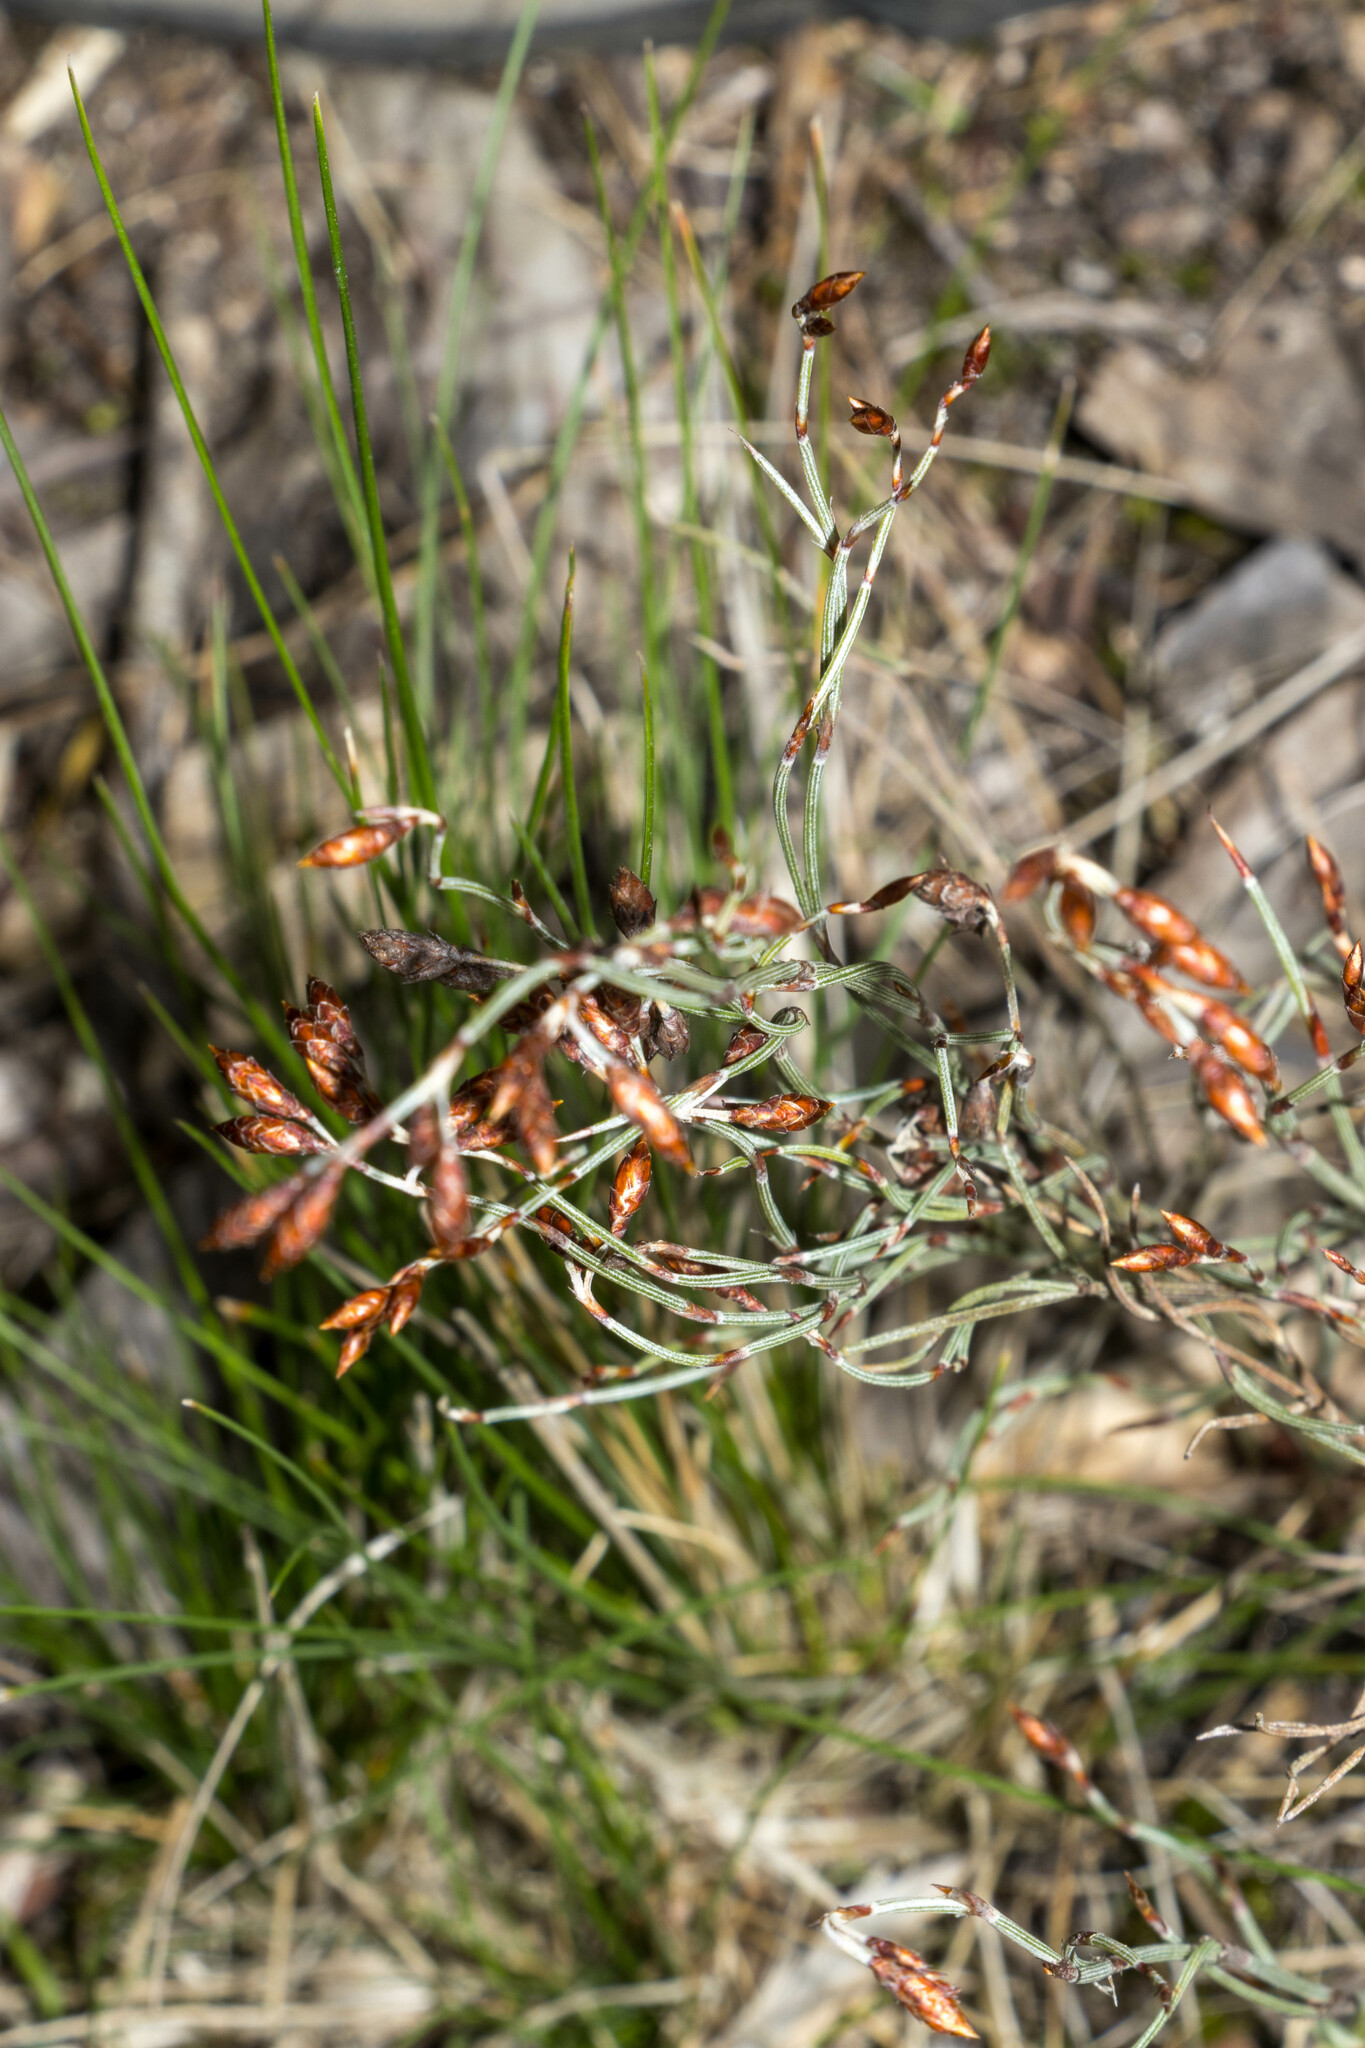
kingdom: Plantae
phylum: Tracheophyta
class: Liliopsida
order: Poales
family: Restionaceae
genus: Hypolaena
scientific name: Hypolaena fastigiata
